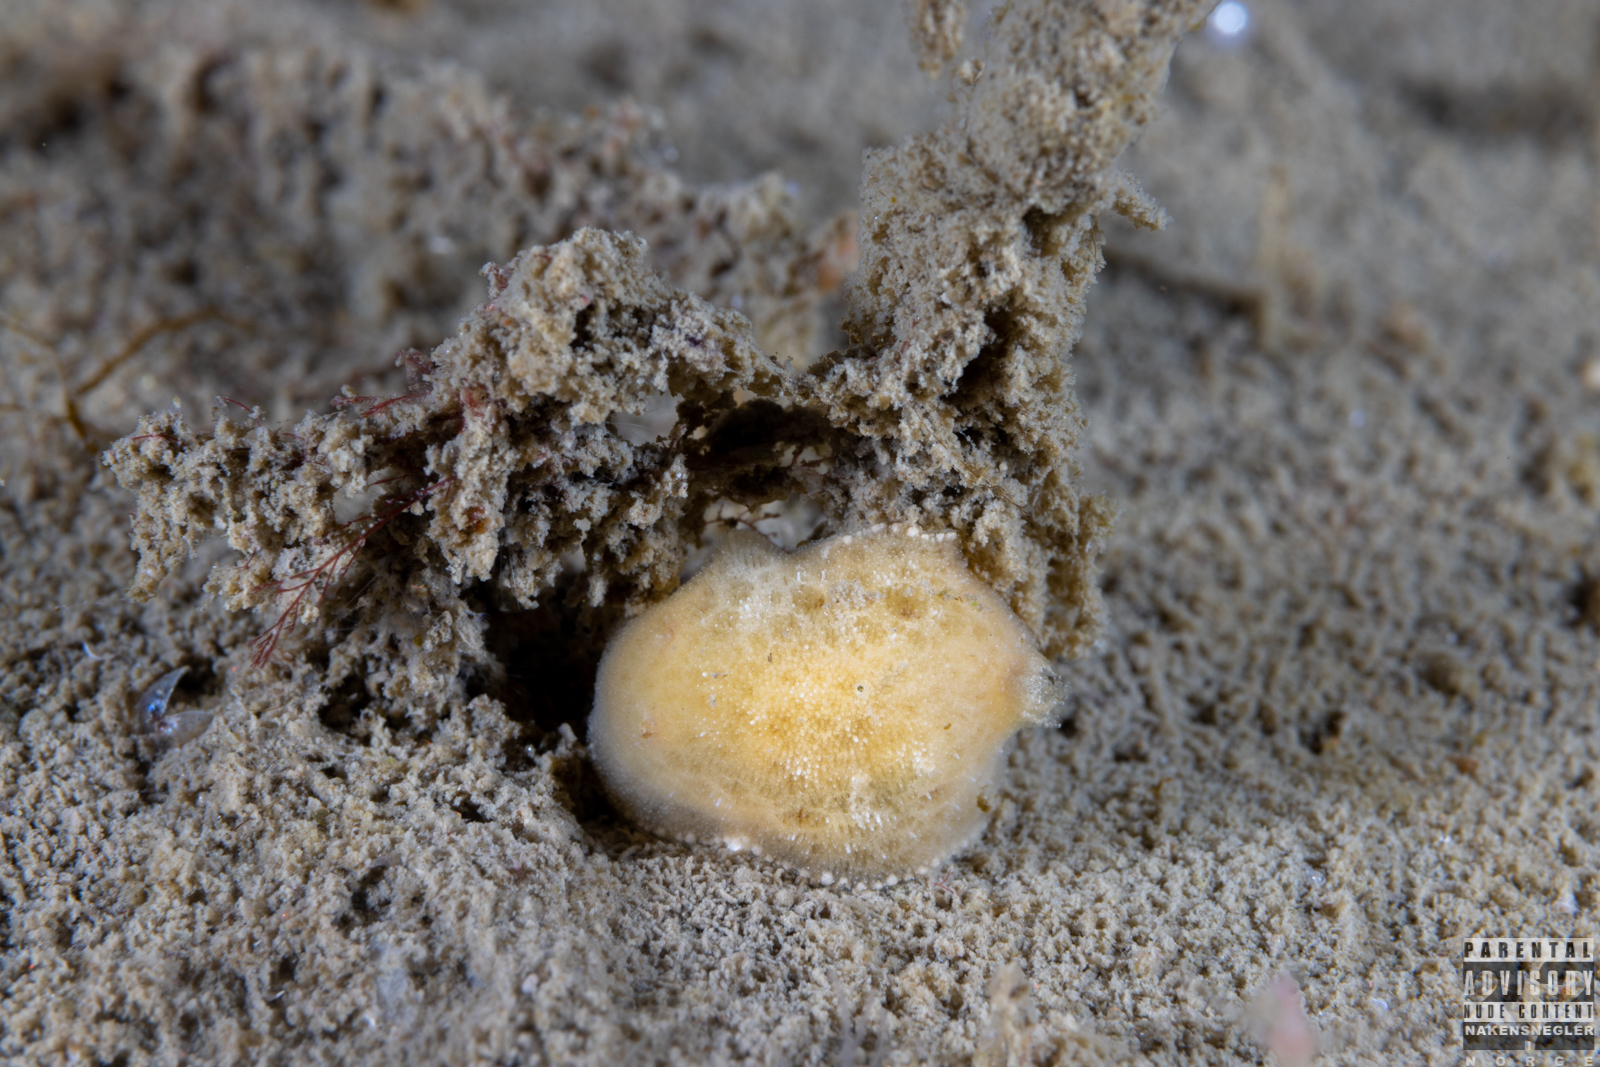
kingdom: Animalia
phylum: Mollusca
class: Gastropoda
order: Nudibranchia
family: Discodorididae
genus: Jorunna
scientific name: Jorunna tomentosa
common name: Grey sea slug
